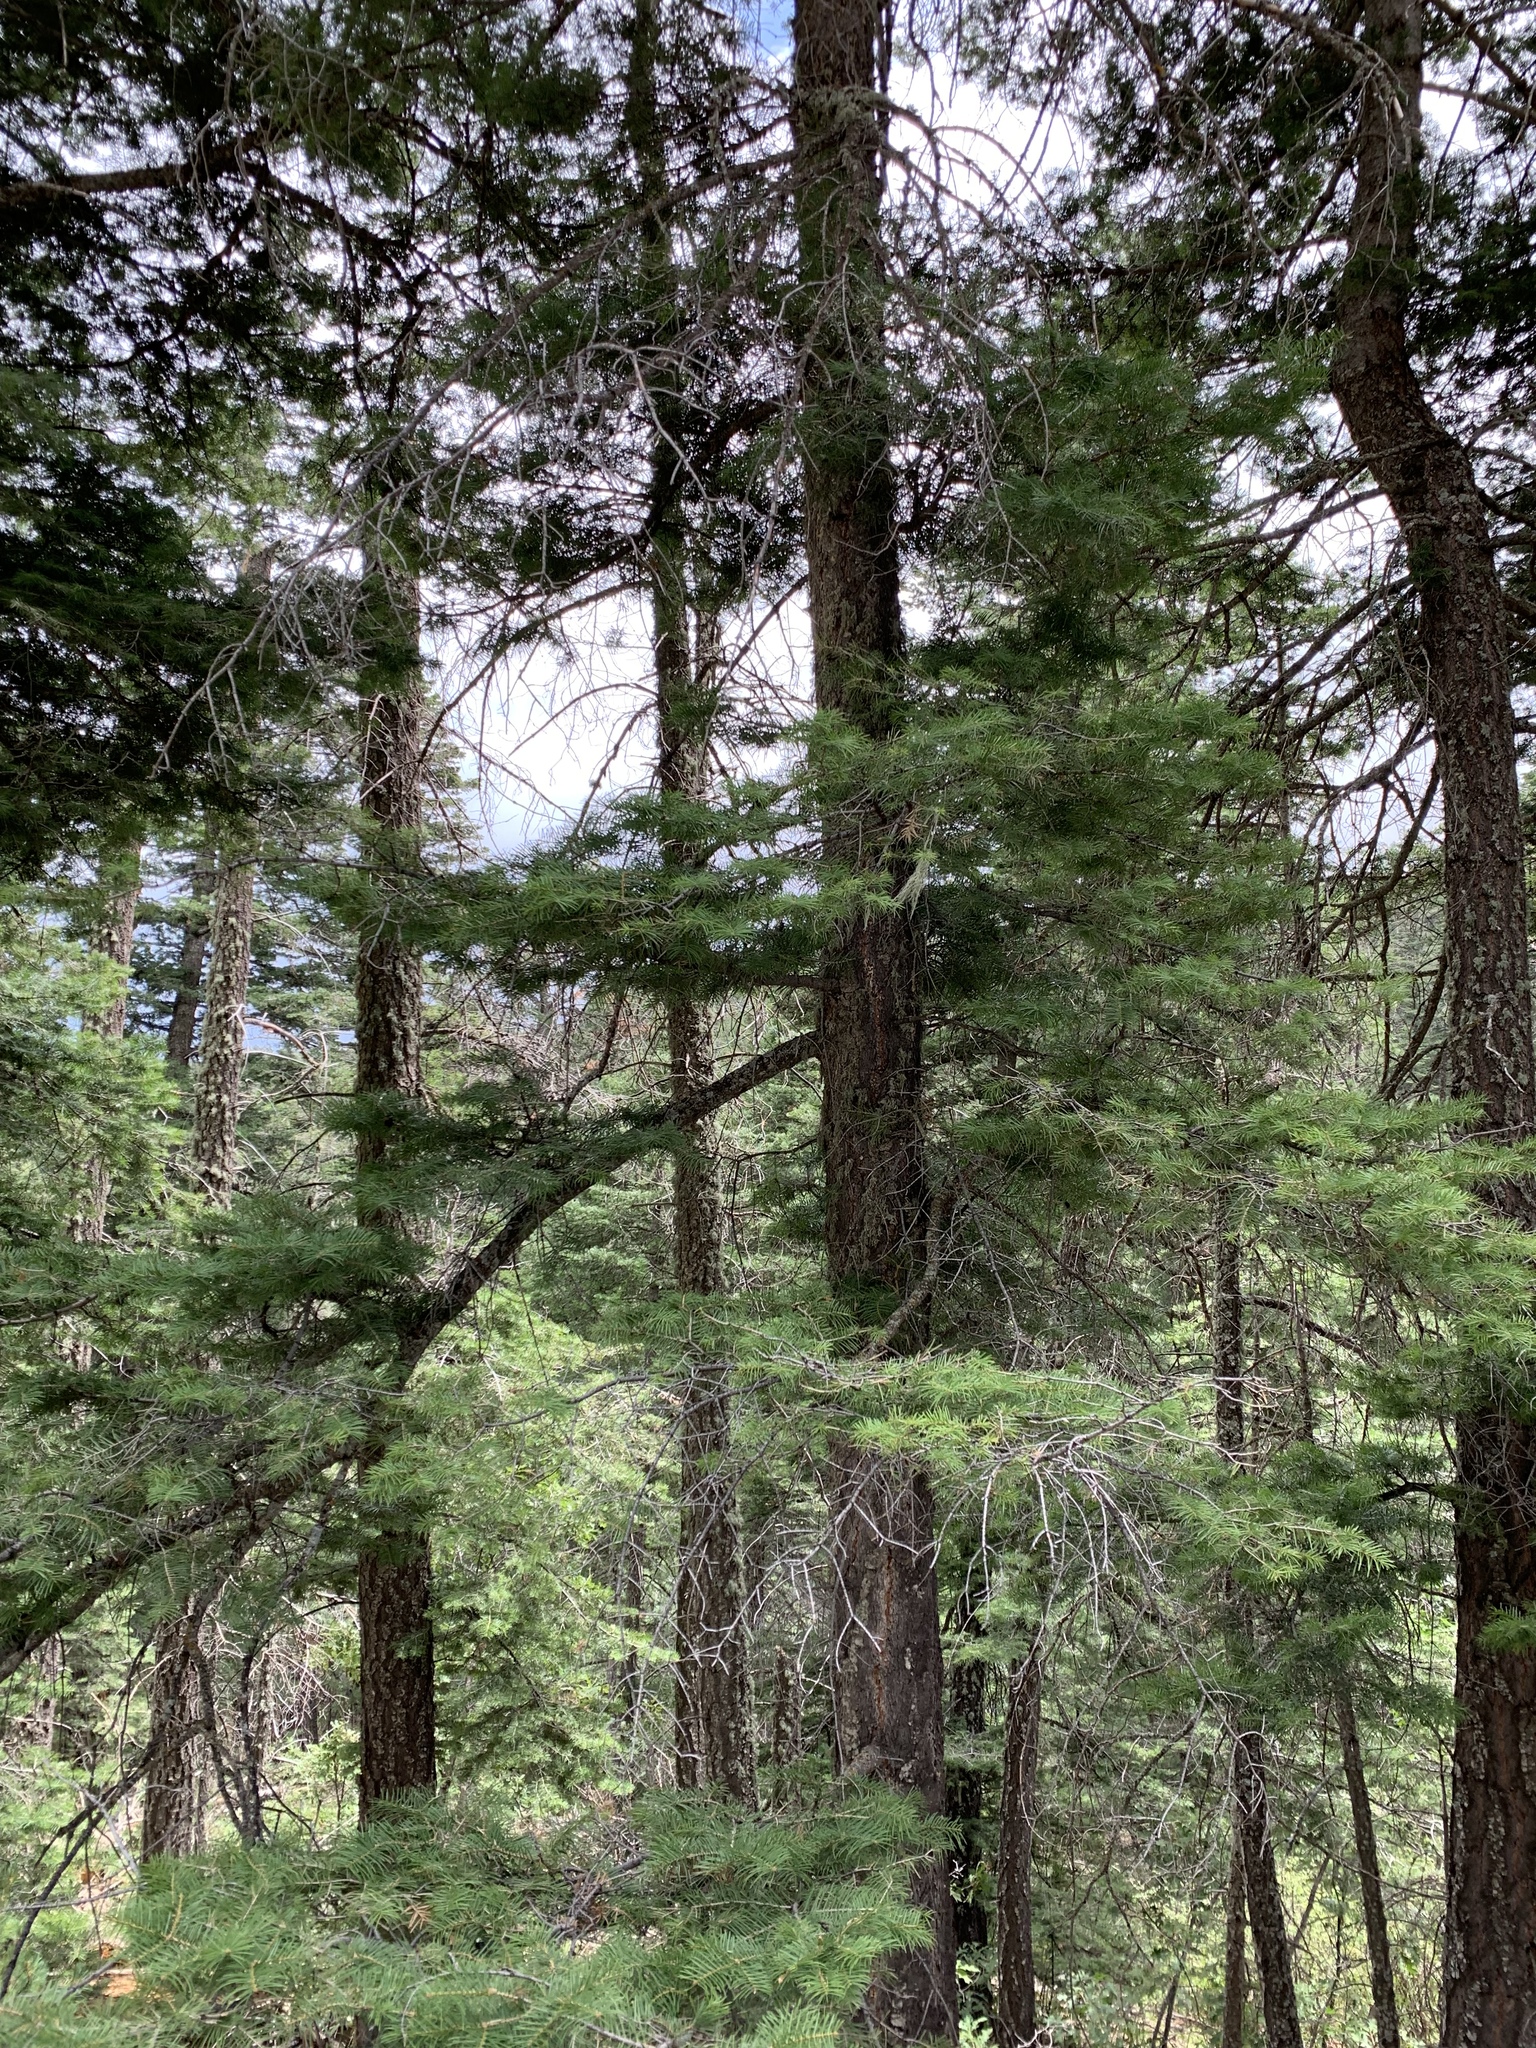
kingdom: Plantae
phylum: Tracheophyta
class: Pinopsida
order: Pinales
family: Pinaceae
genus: Abies
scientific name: Abies concolor
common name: Colorado fir
